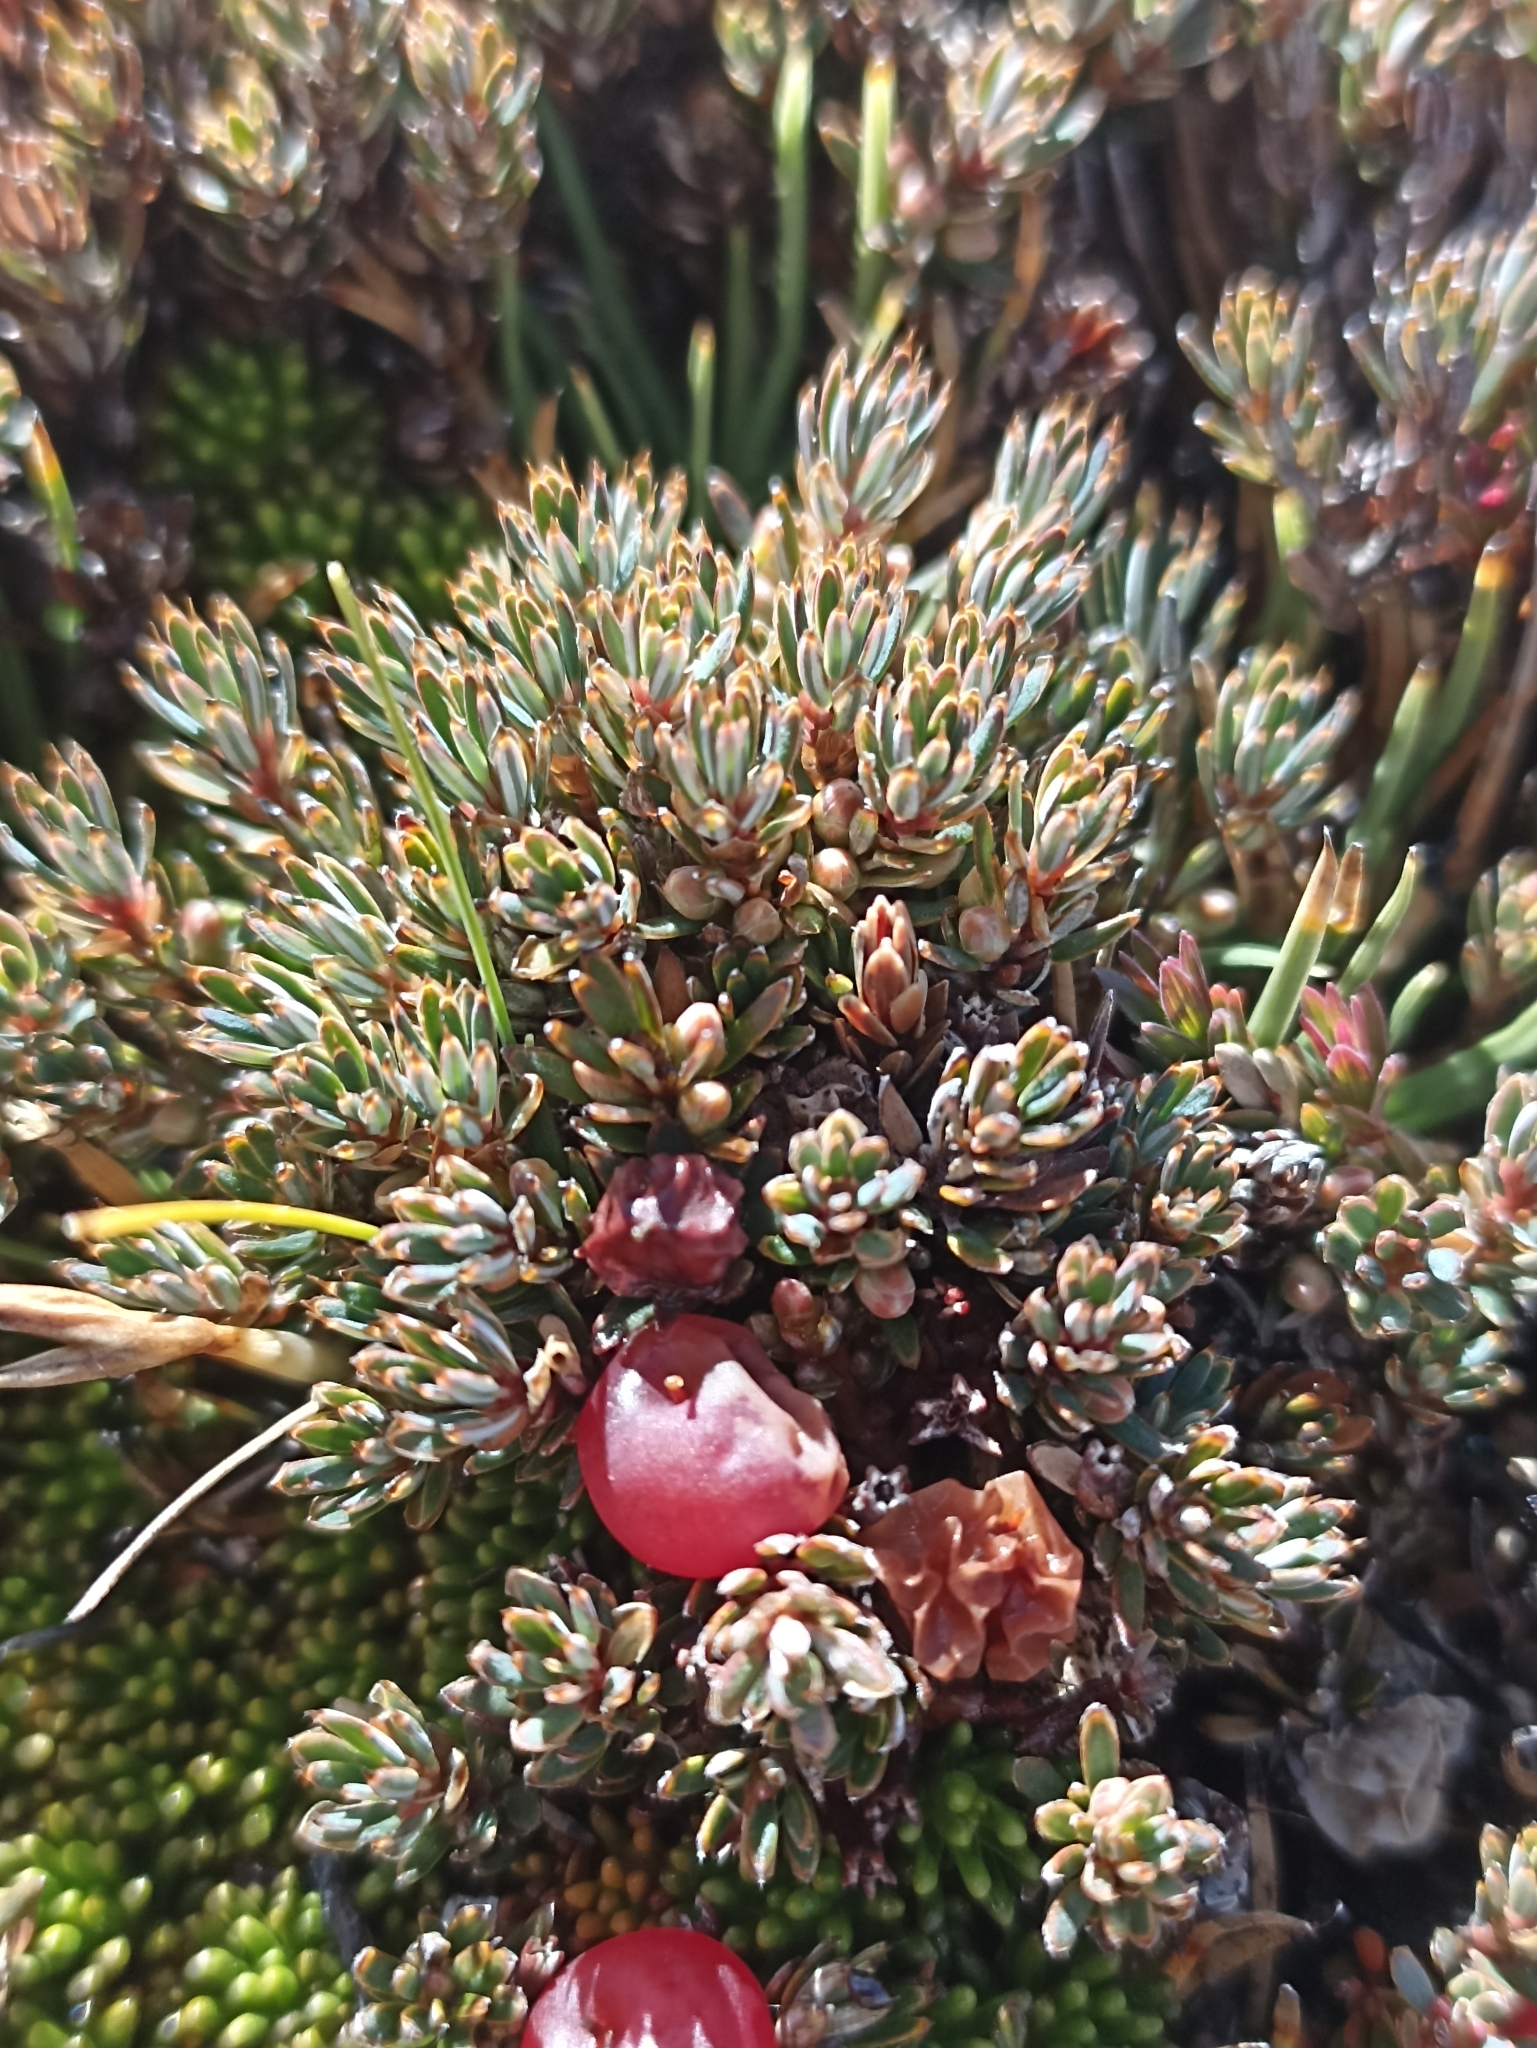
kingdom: Plantae
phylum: Tracheophyta
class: Magnoliopsida
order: Ericales
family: Ericaceae
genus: Montitega
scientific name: Montitega dealbata
